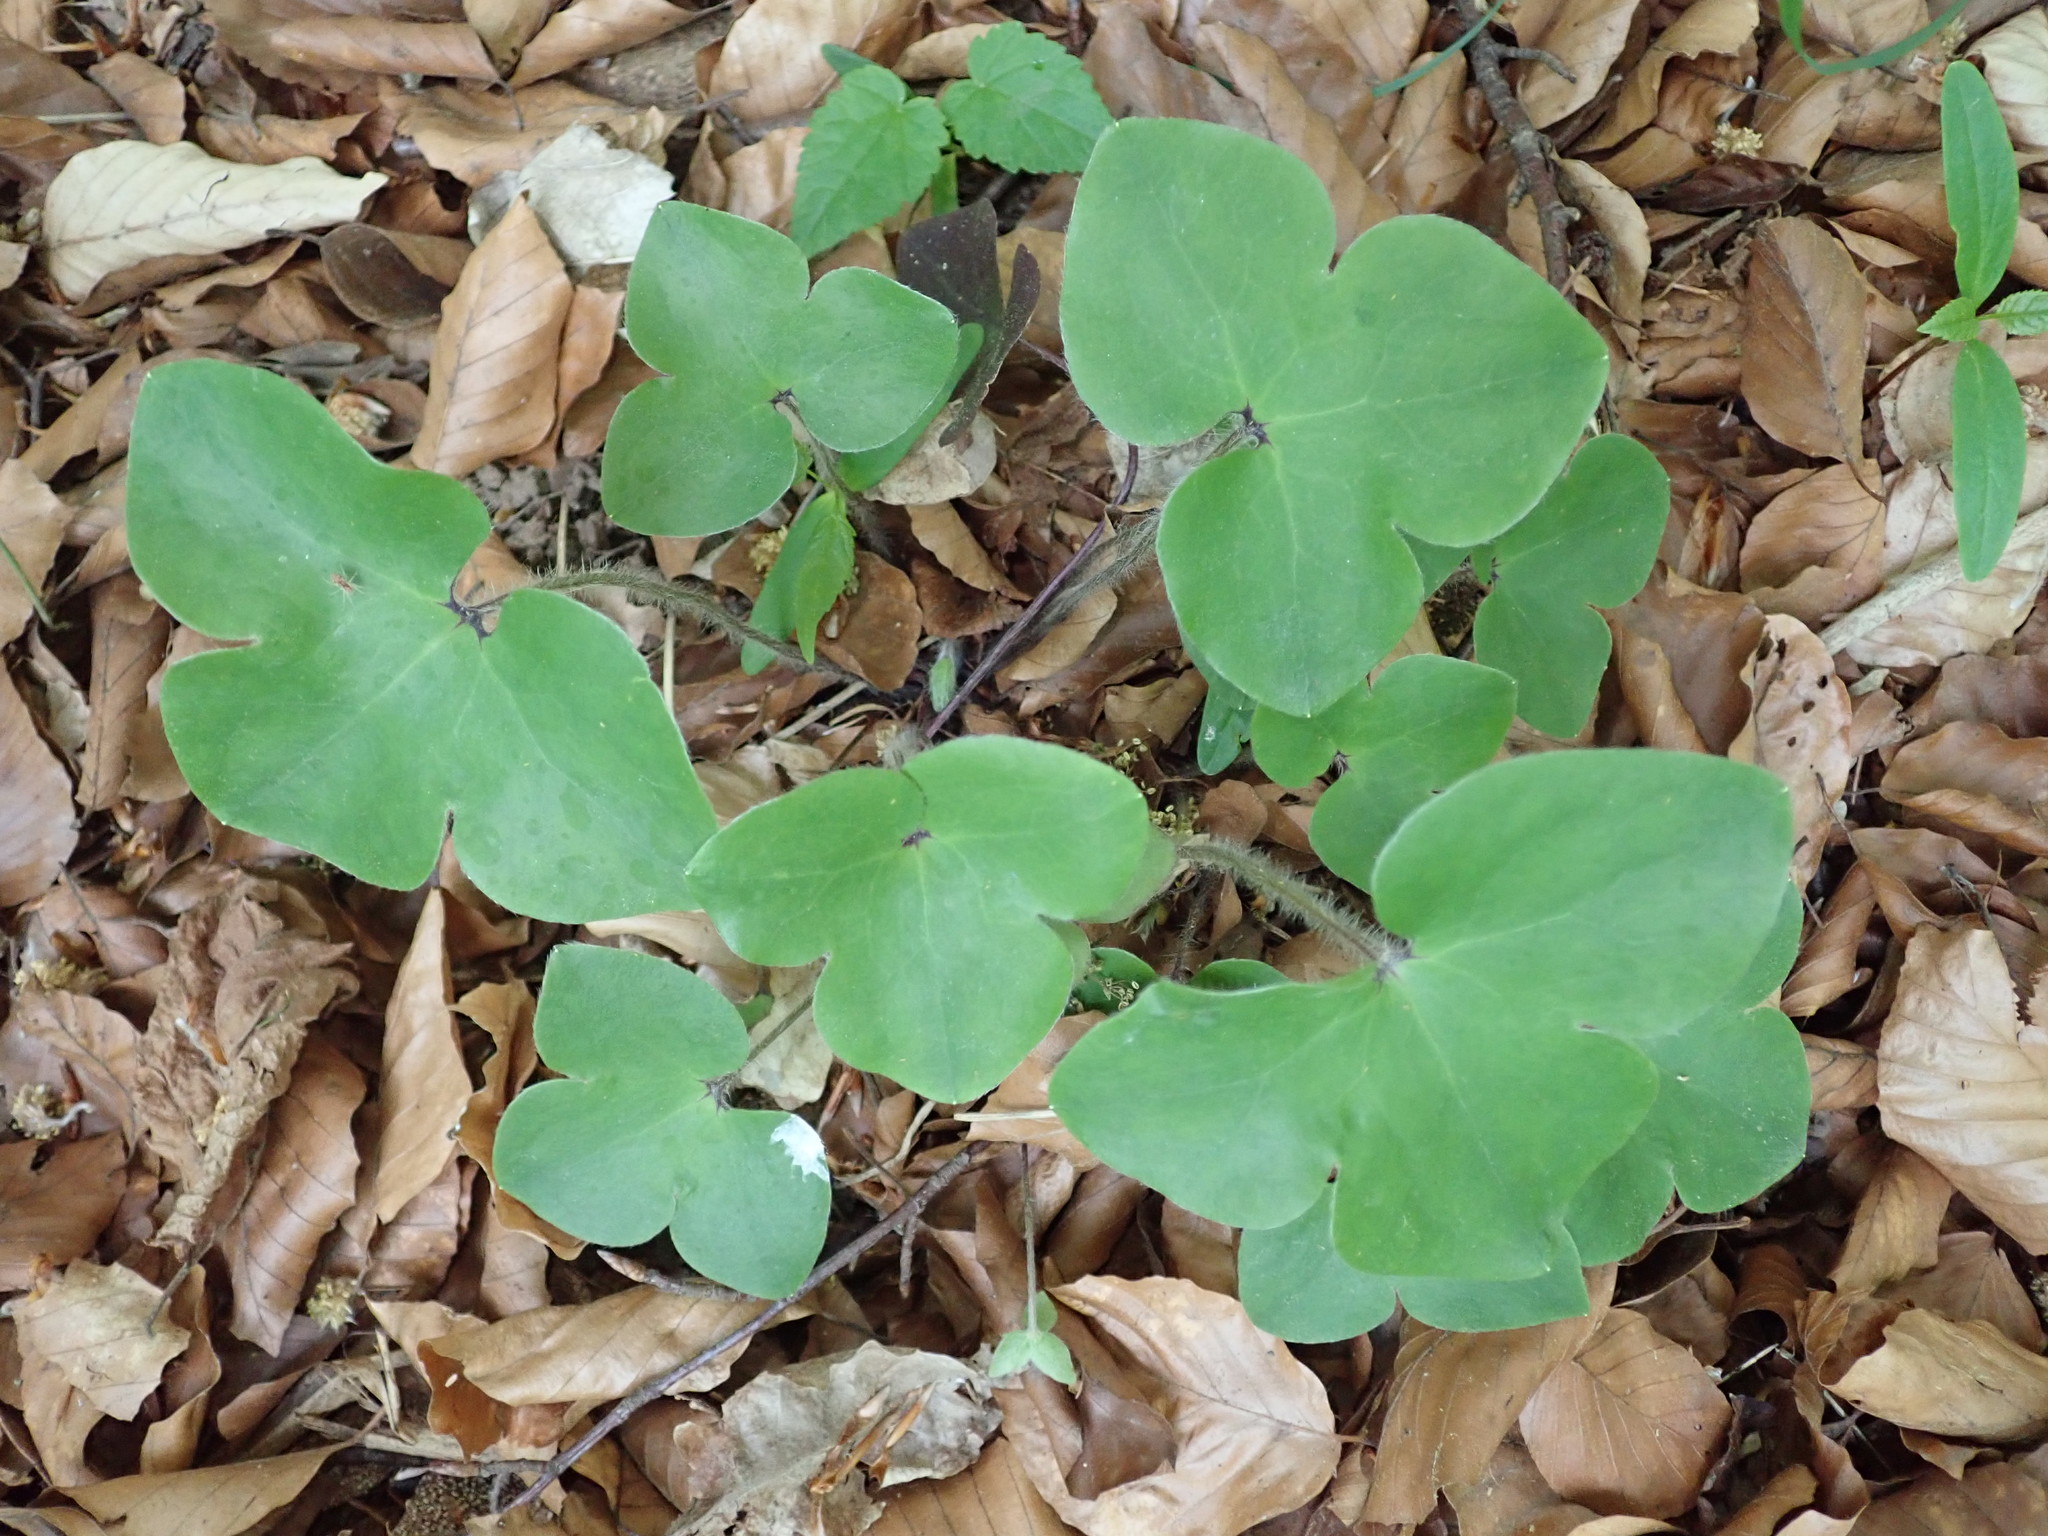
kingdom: Plantae
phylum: Tracheophyta
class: Magnoliopsida
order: Ranunculales
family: Ranunculaceae
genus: Hepatica
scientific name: Hepatica nobilis
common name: Liverleaf
